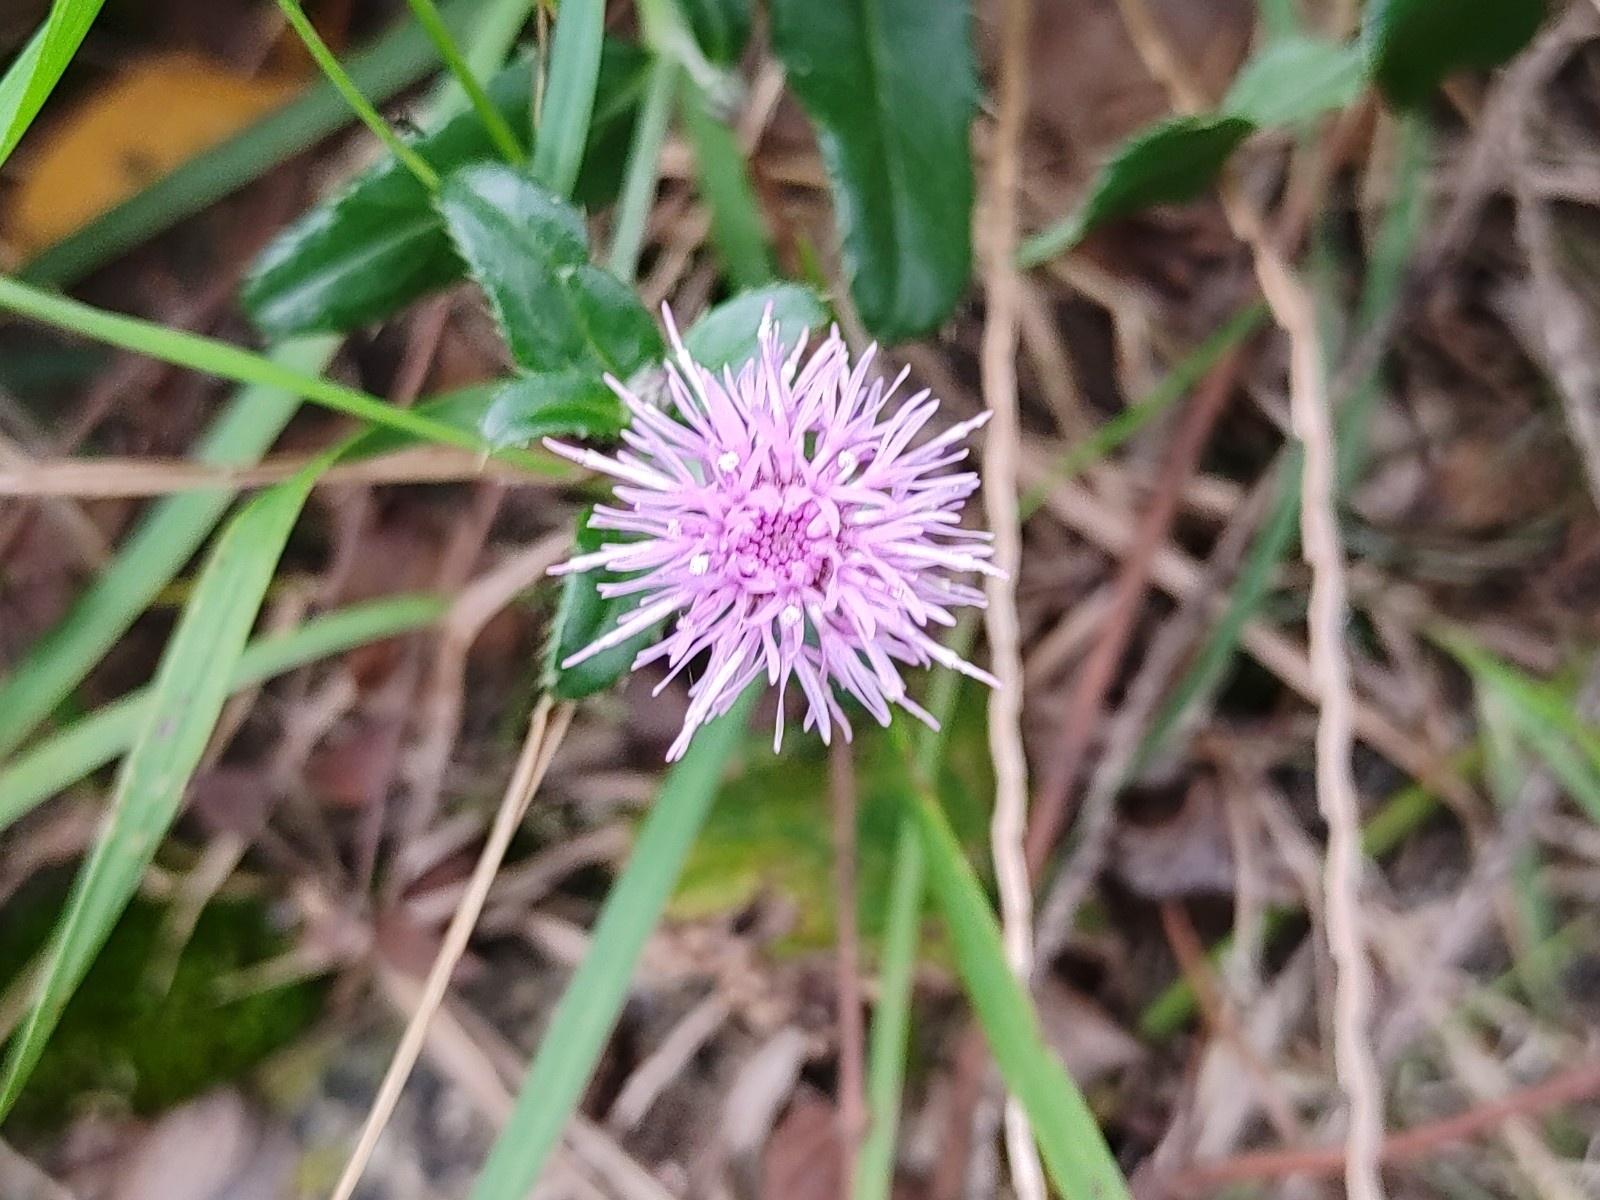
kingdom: Plantae
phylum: Tracheophyta
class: Magnoliopsida
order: Asterales
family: Asteraceae
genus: Cirsium
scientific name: Cirsium arvense
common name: Creeping thistle
